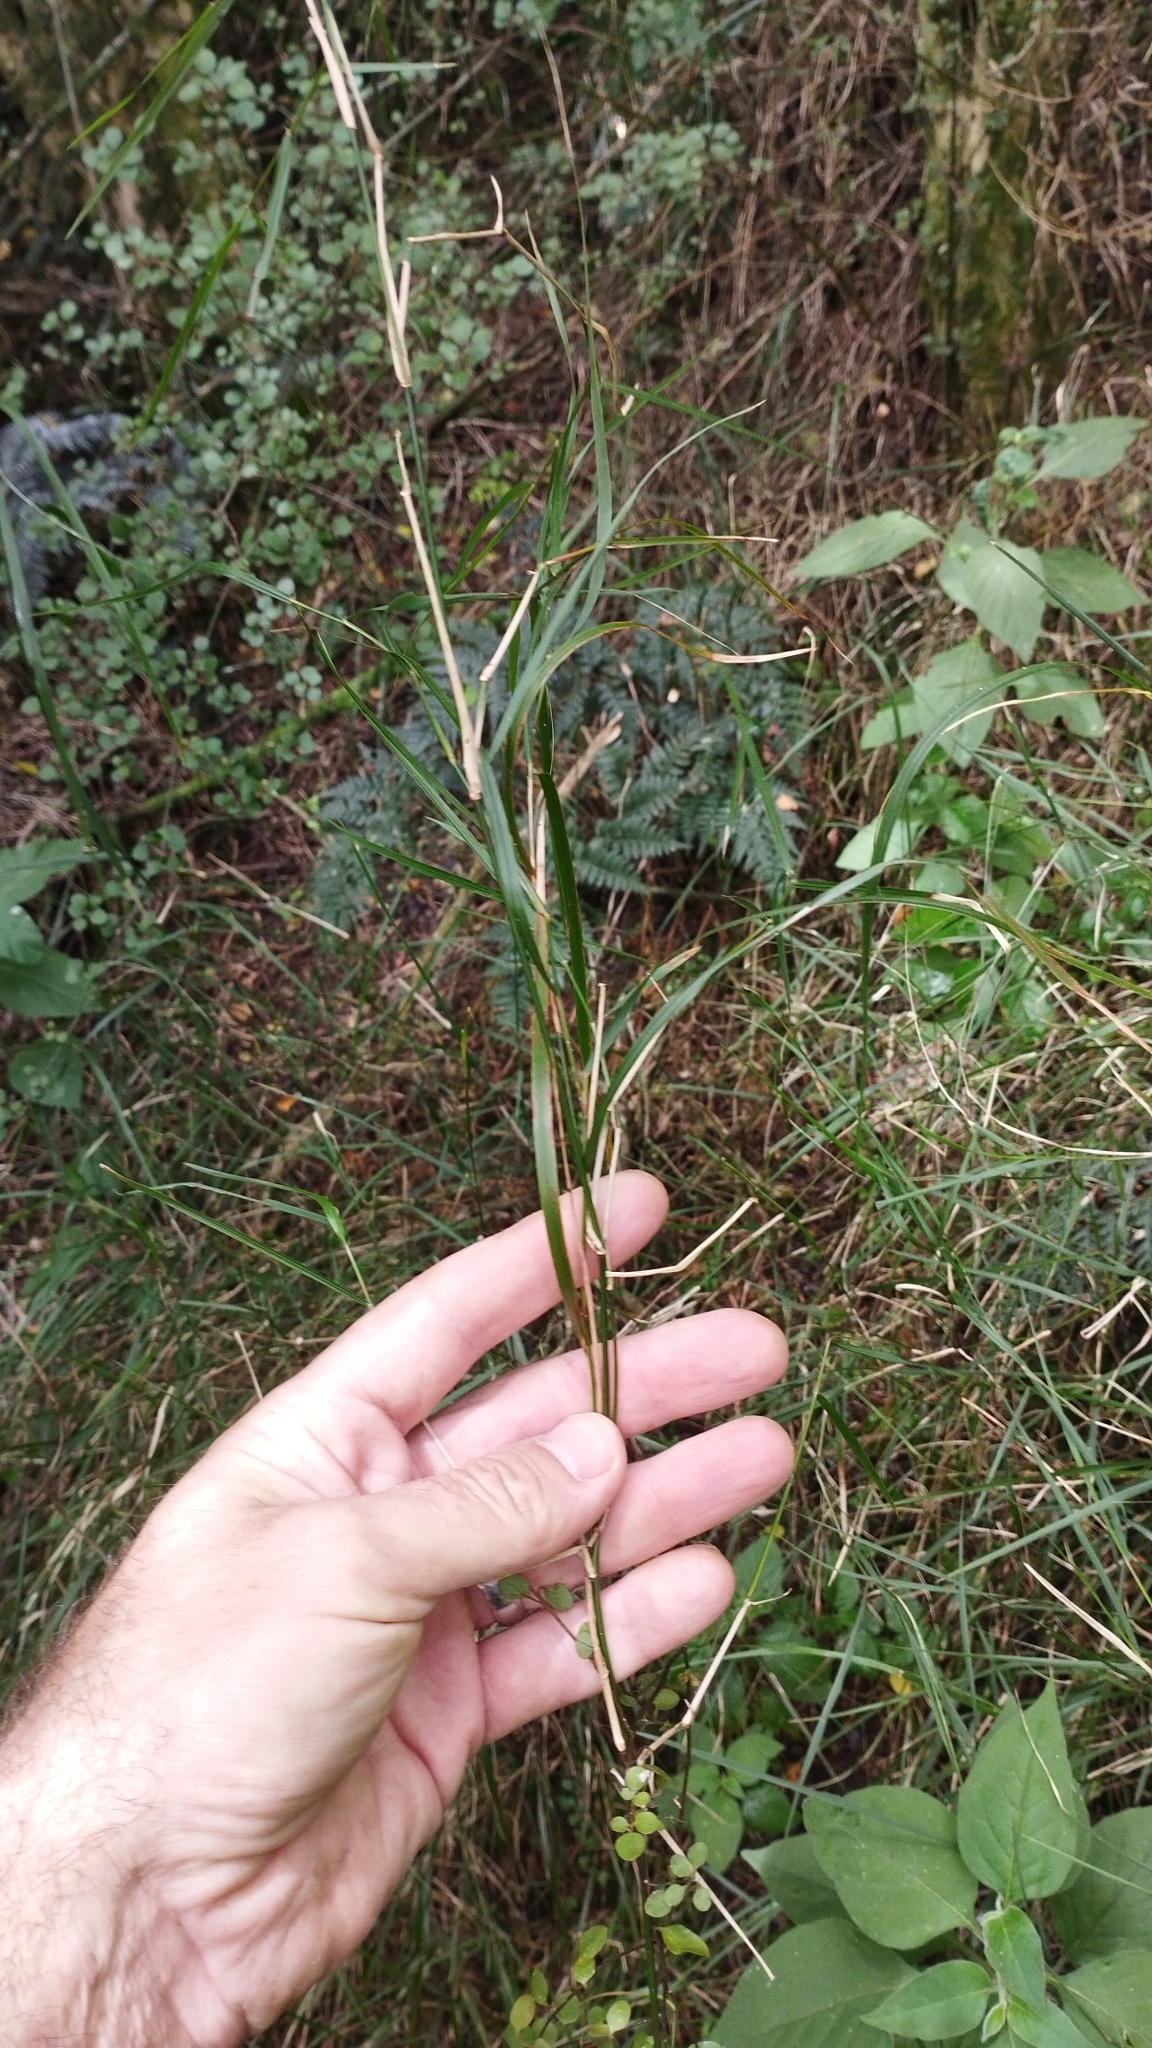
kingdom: Plantae
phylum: Tracheophyta
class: Liliopsida
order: Poales
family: Poaceae
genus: Microlaena
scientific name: Microlaena polynoda
